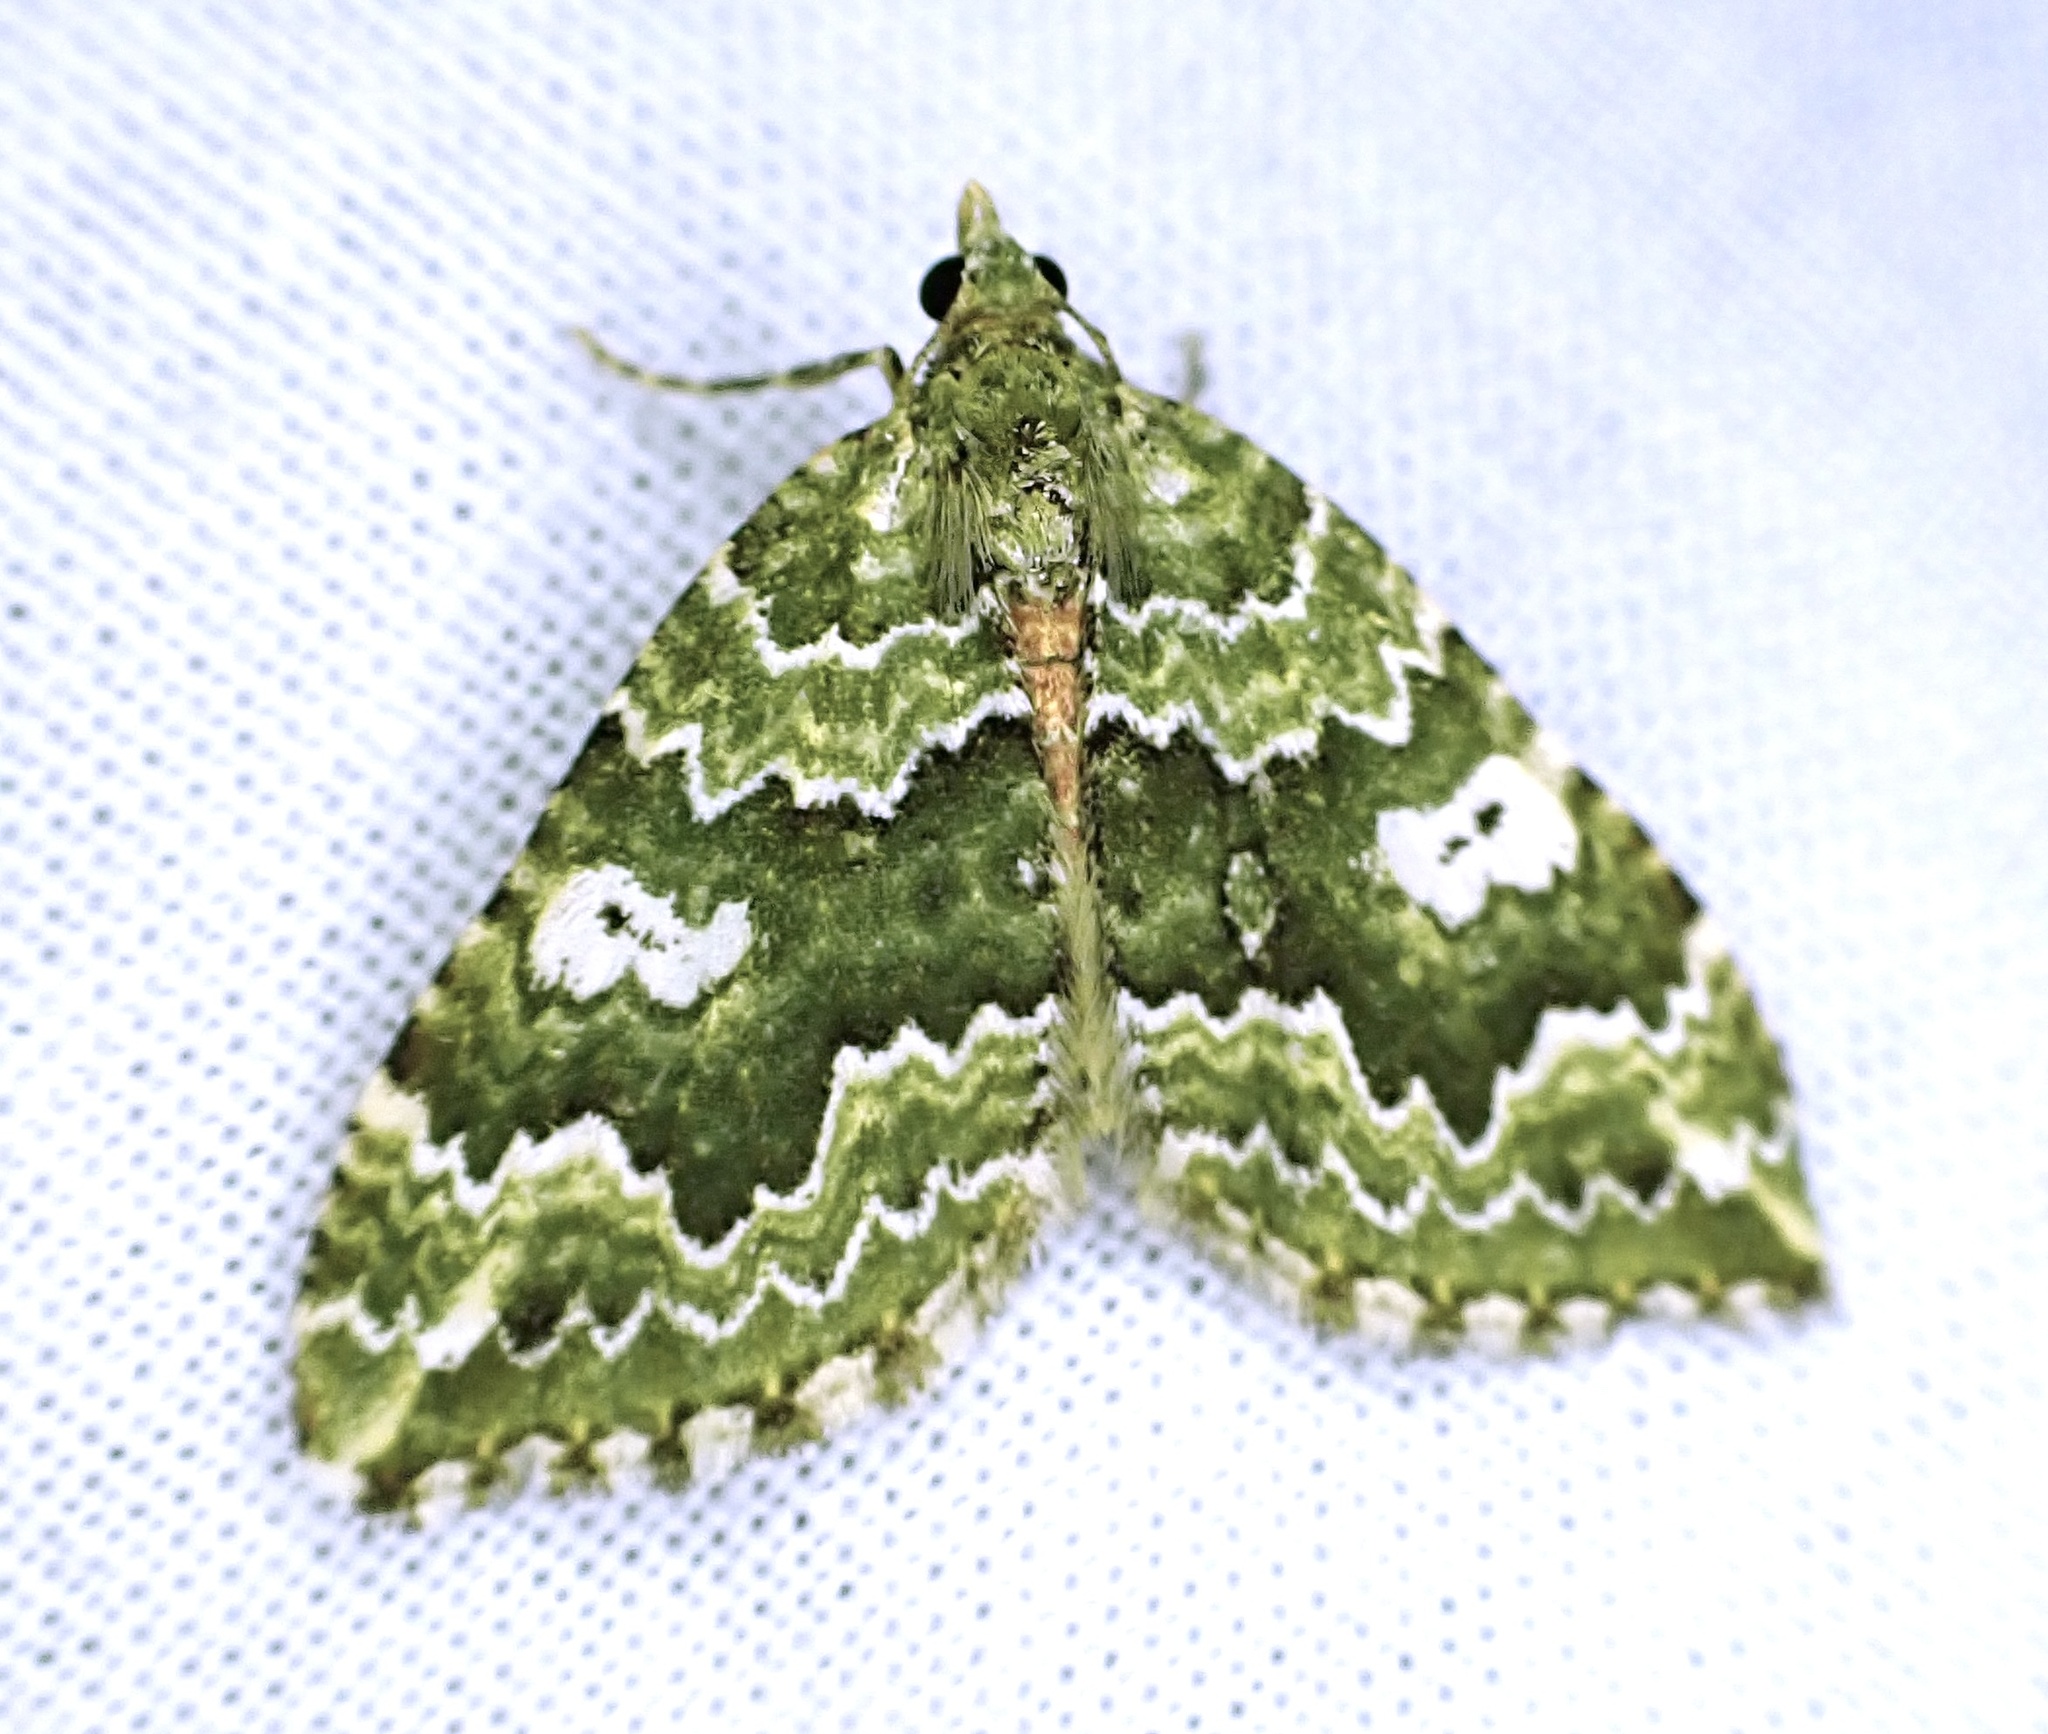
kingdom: Animalia
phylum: Arthropoda
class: Insecta
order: Lepidoptera
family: Geometridae
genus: Asaphodes
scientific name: Asaphodes beata
